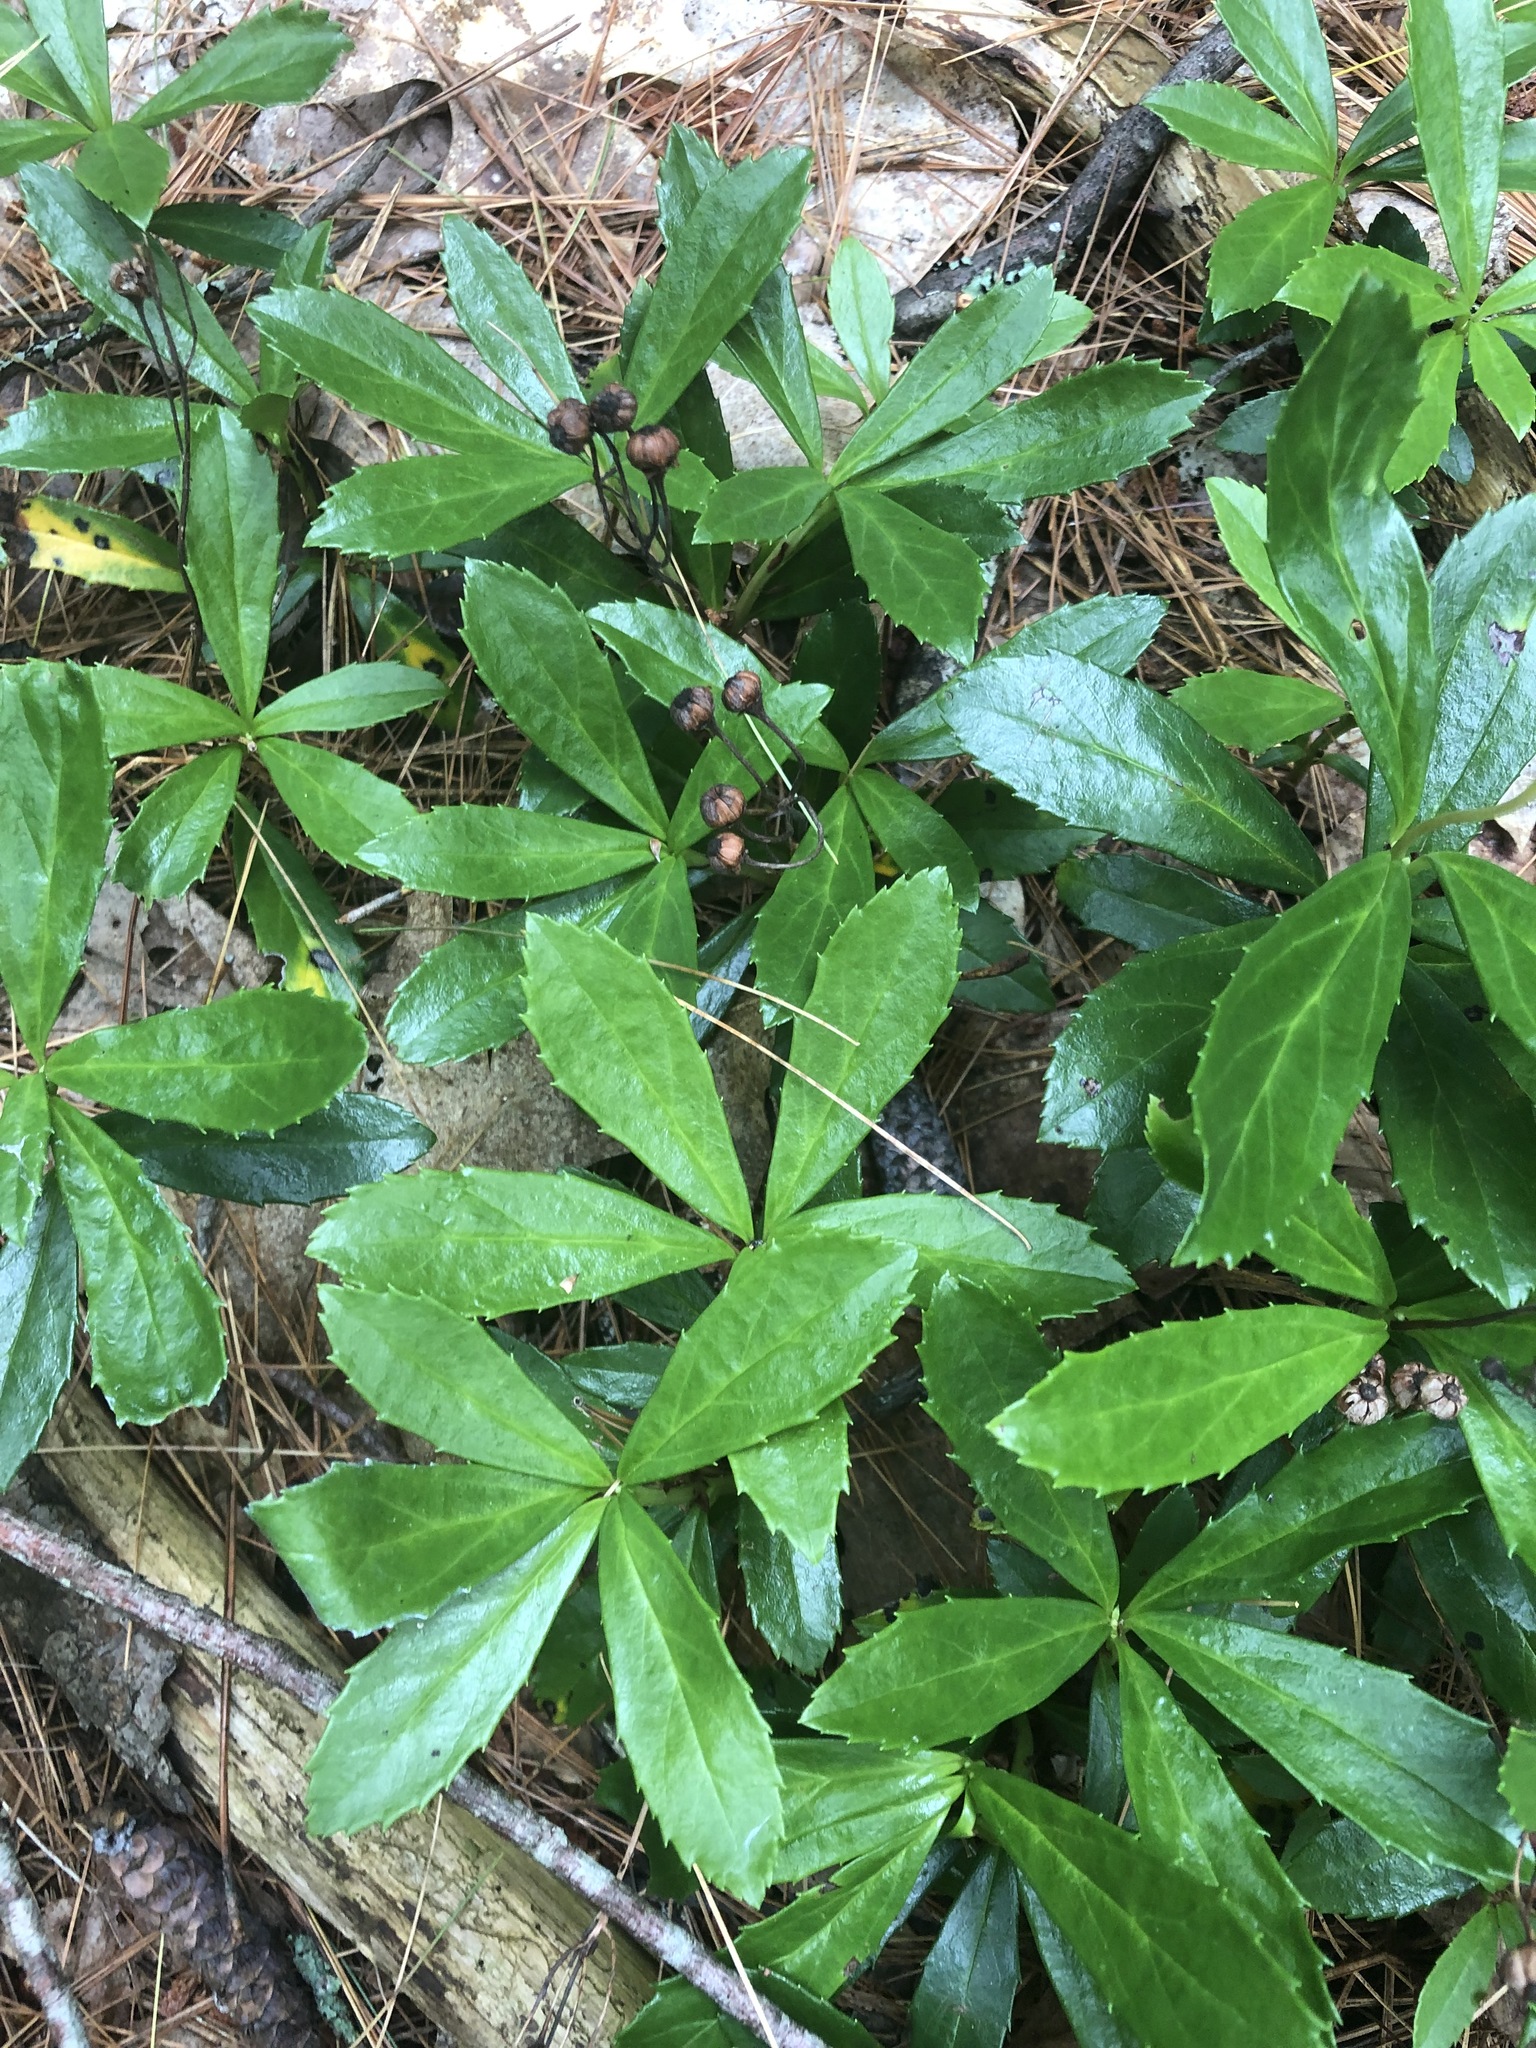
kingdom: Plantae
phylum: Tracheophyta
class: Magnoliopsida
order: Ericales
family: Ericaceae
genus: Chimaphila
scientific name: Chimaphila umbellata
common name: Pipsissewa
